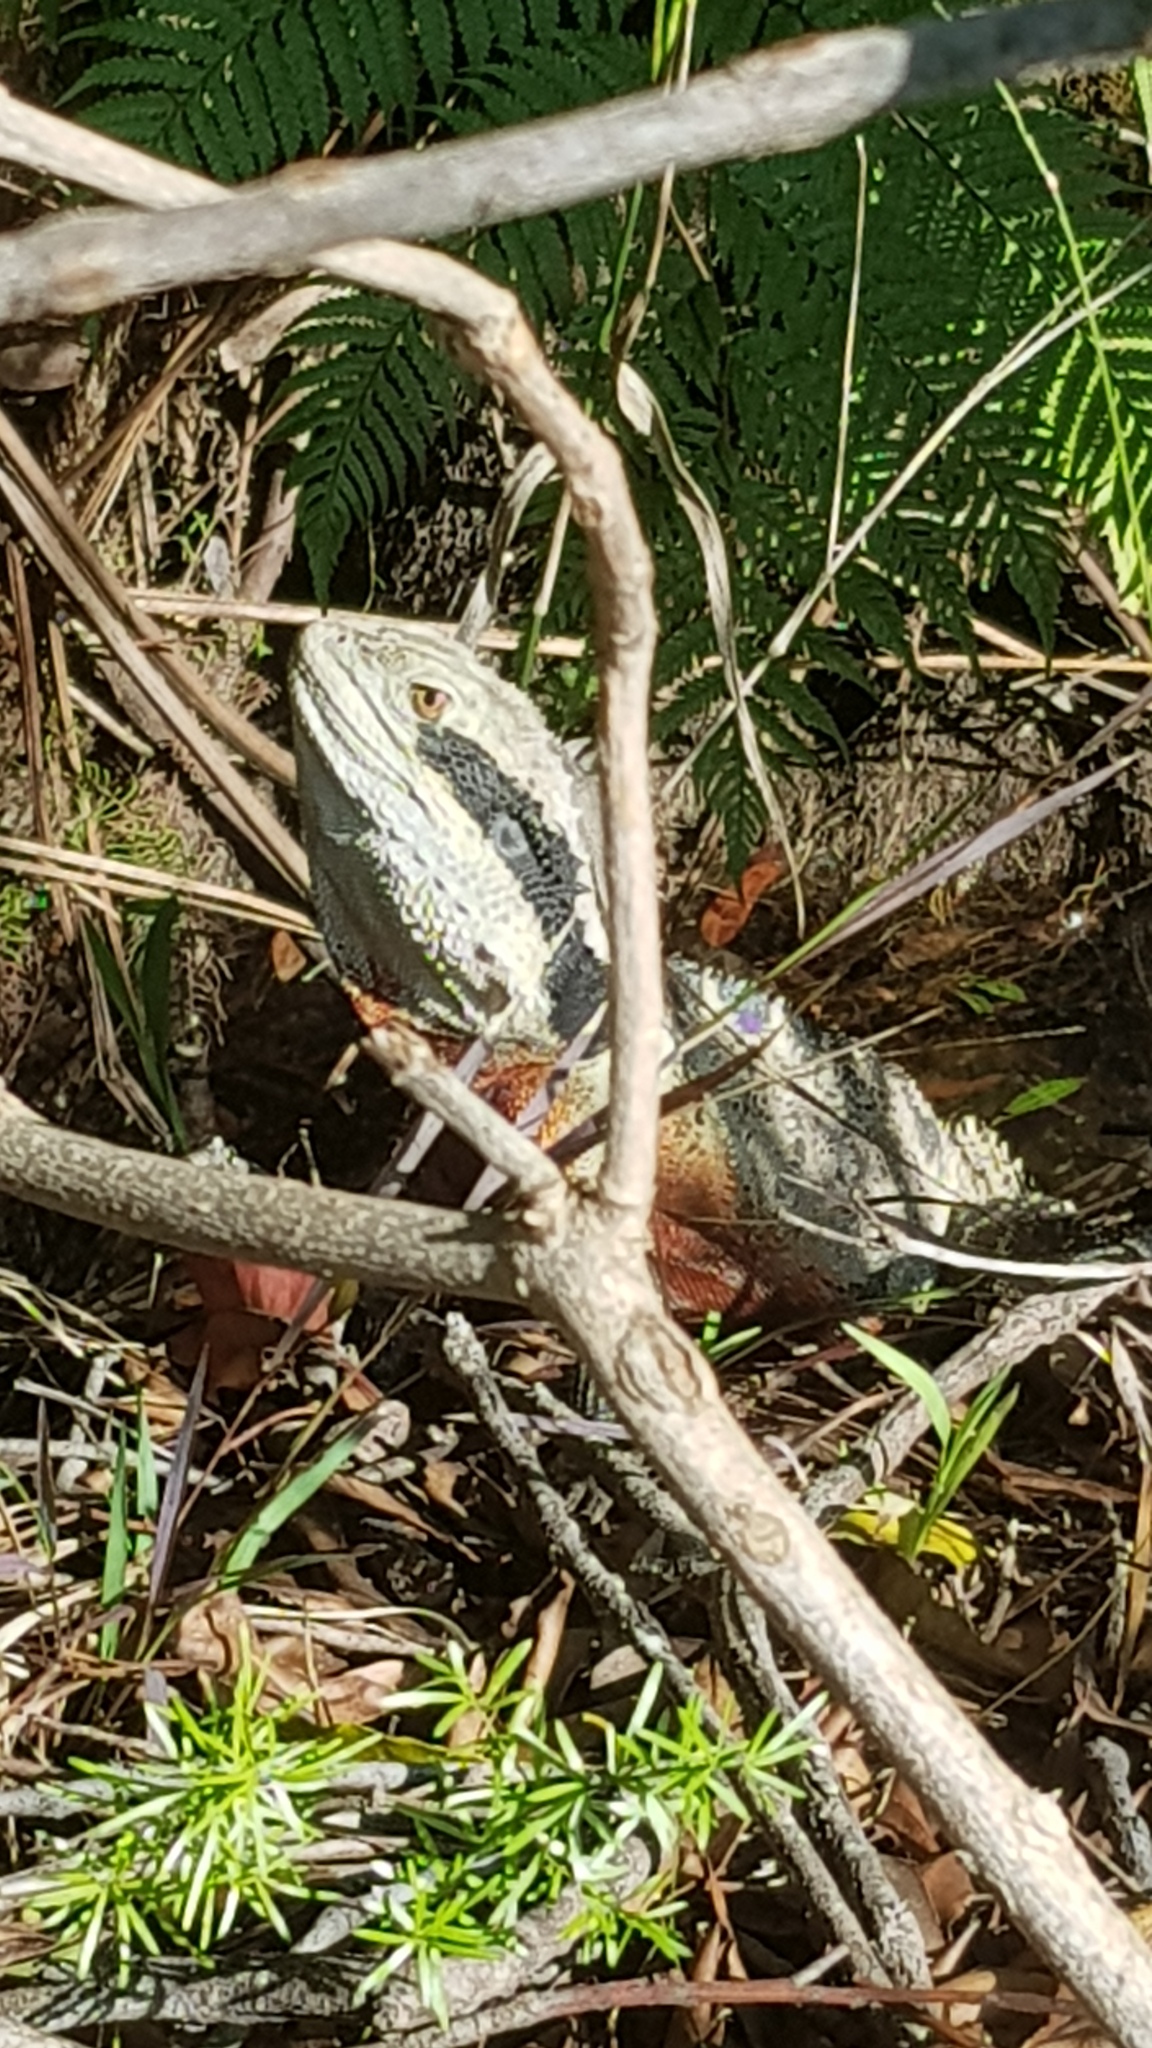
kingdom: Animalia
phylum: Chordata
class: Squamata
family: Agamidae
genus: Intellagama
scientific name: Intellagama lesueurii
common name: Eastern water dragon
